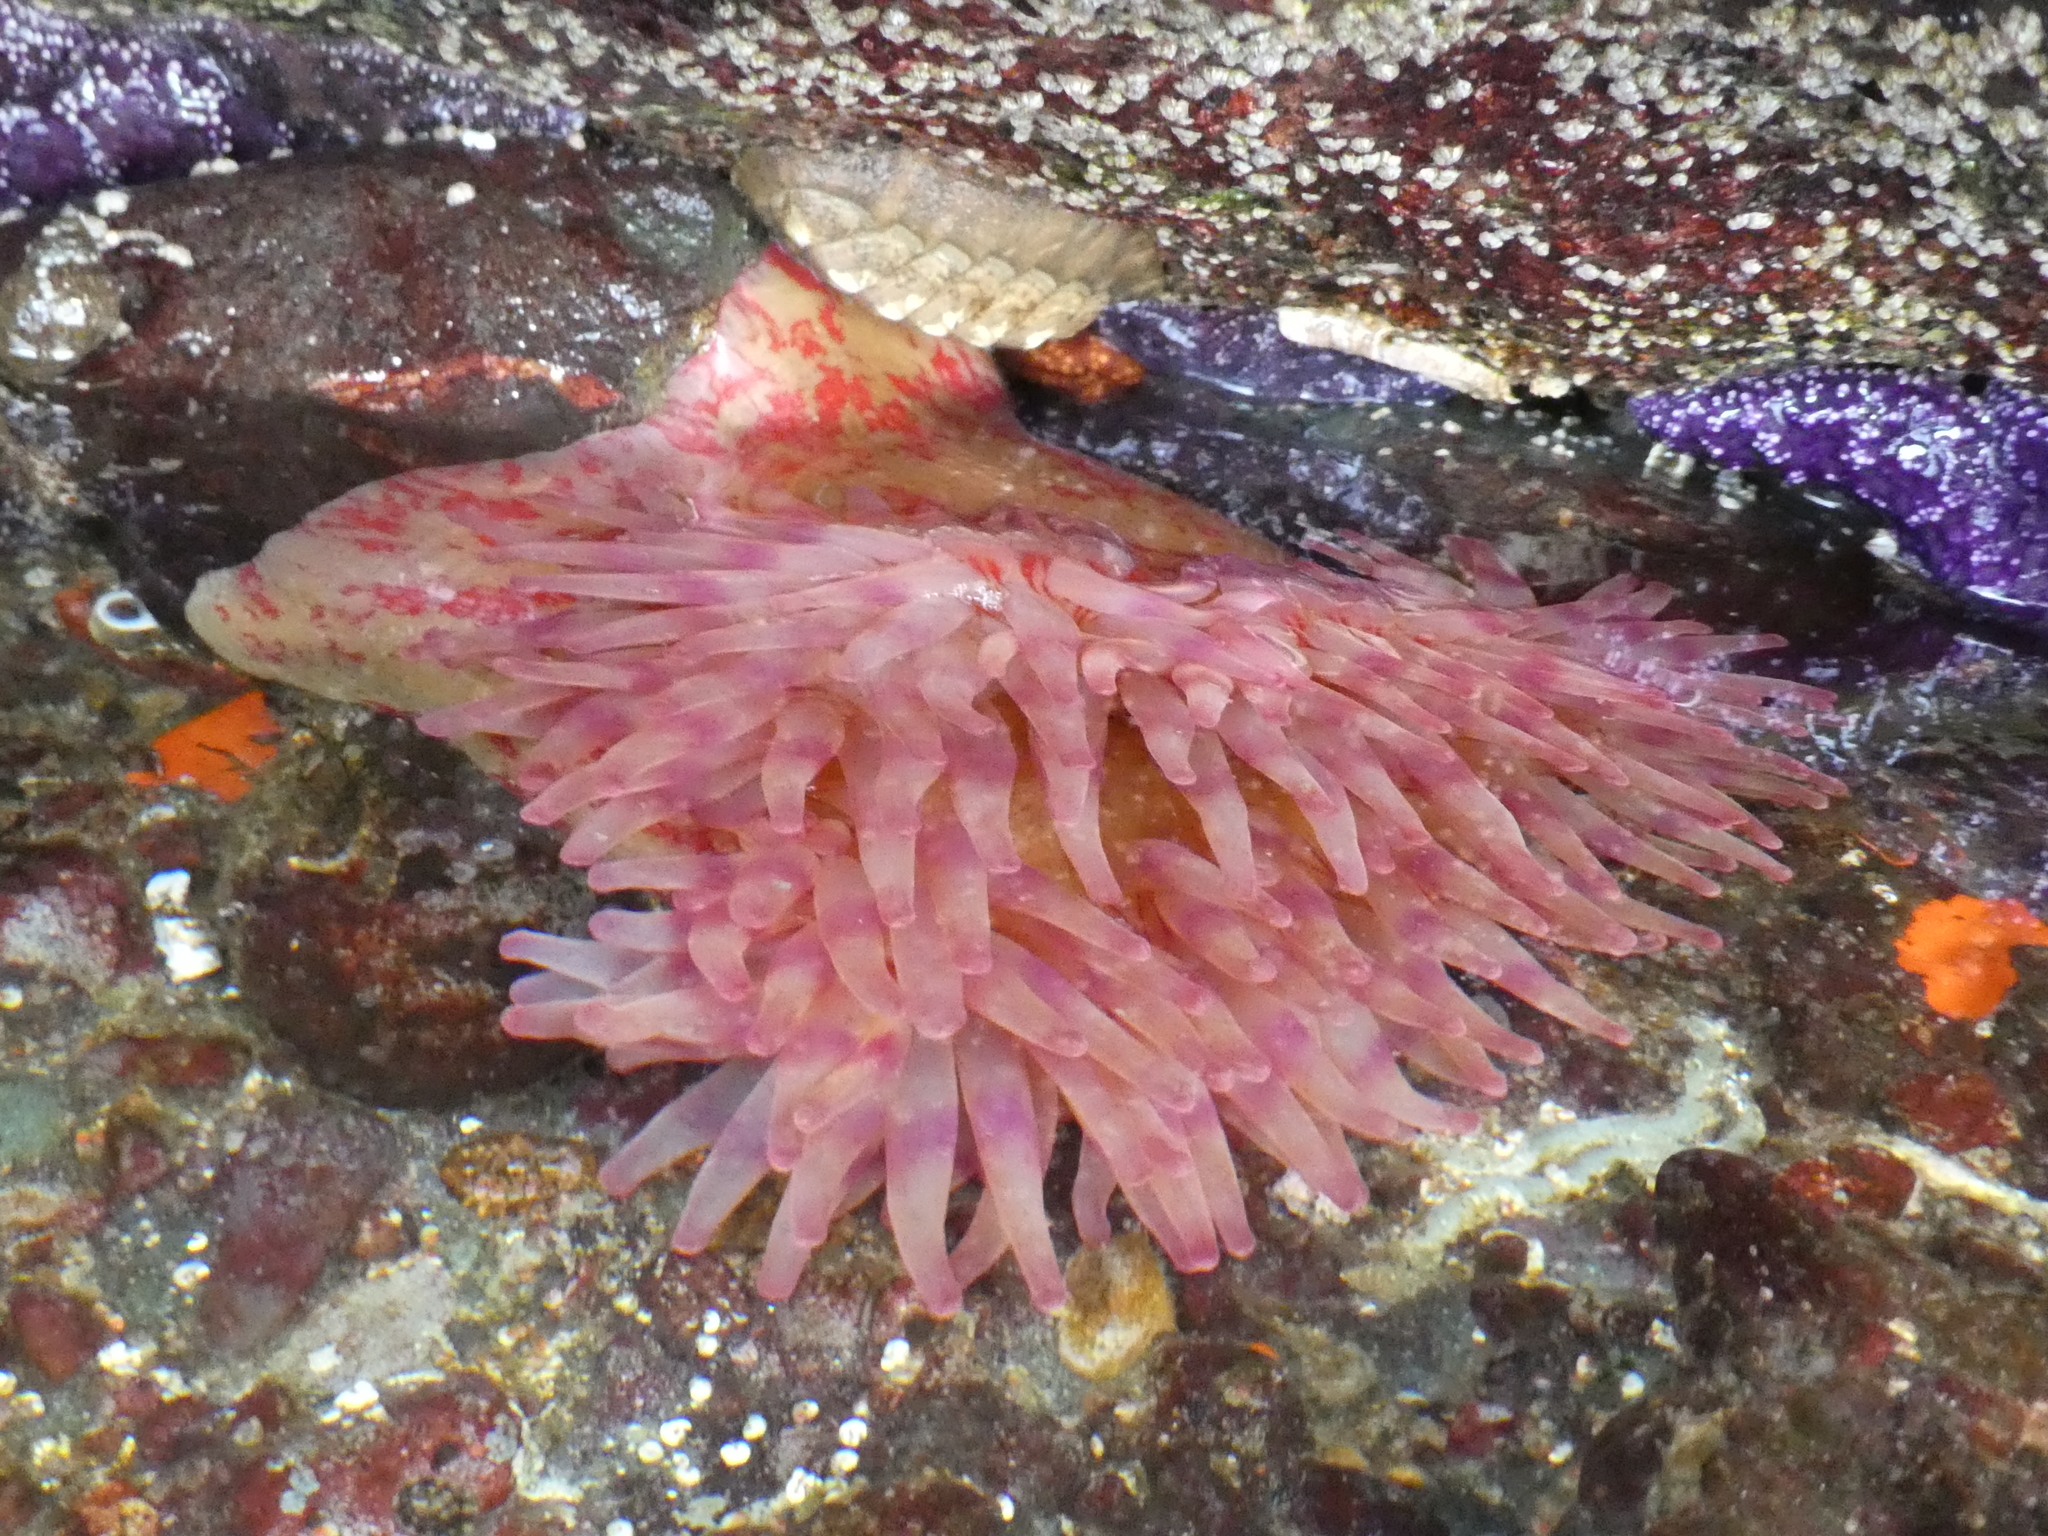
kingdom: Animalia
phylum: Cnidaria
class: Anthozoa
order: Actiniaria
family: Actiniidae
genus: Urticina
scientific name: Urticina grebelnyi
